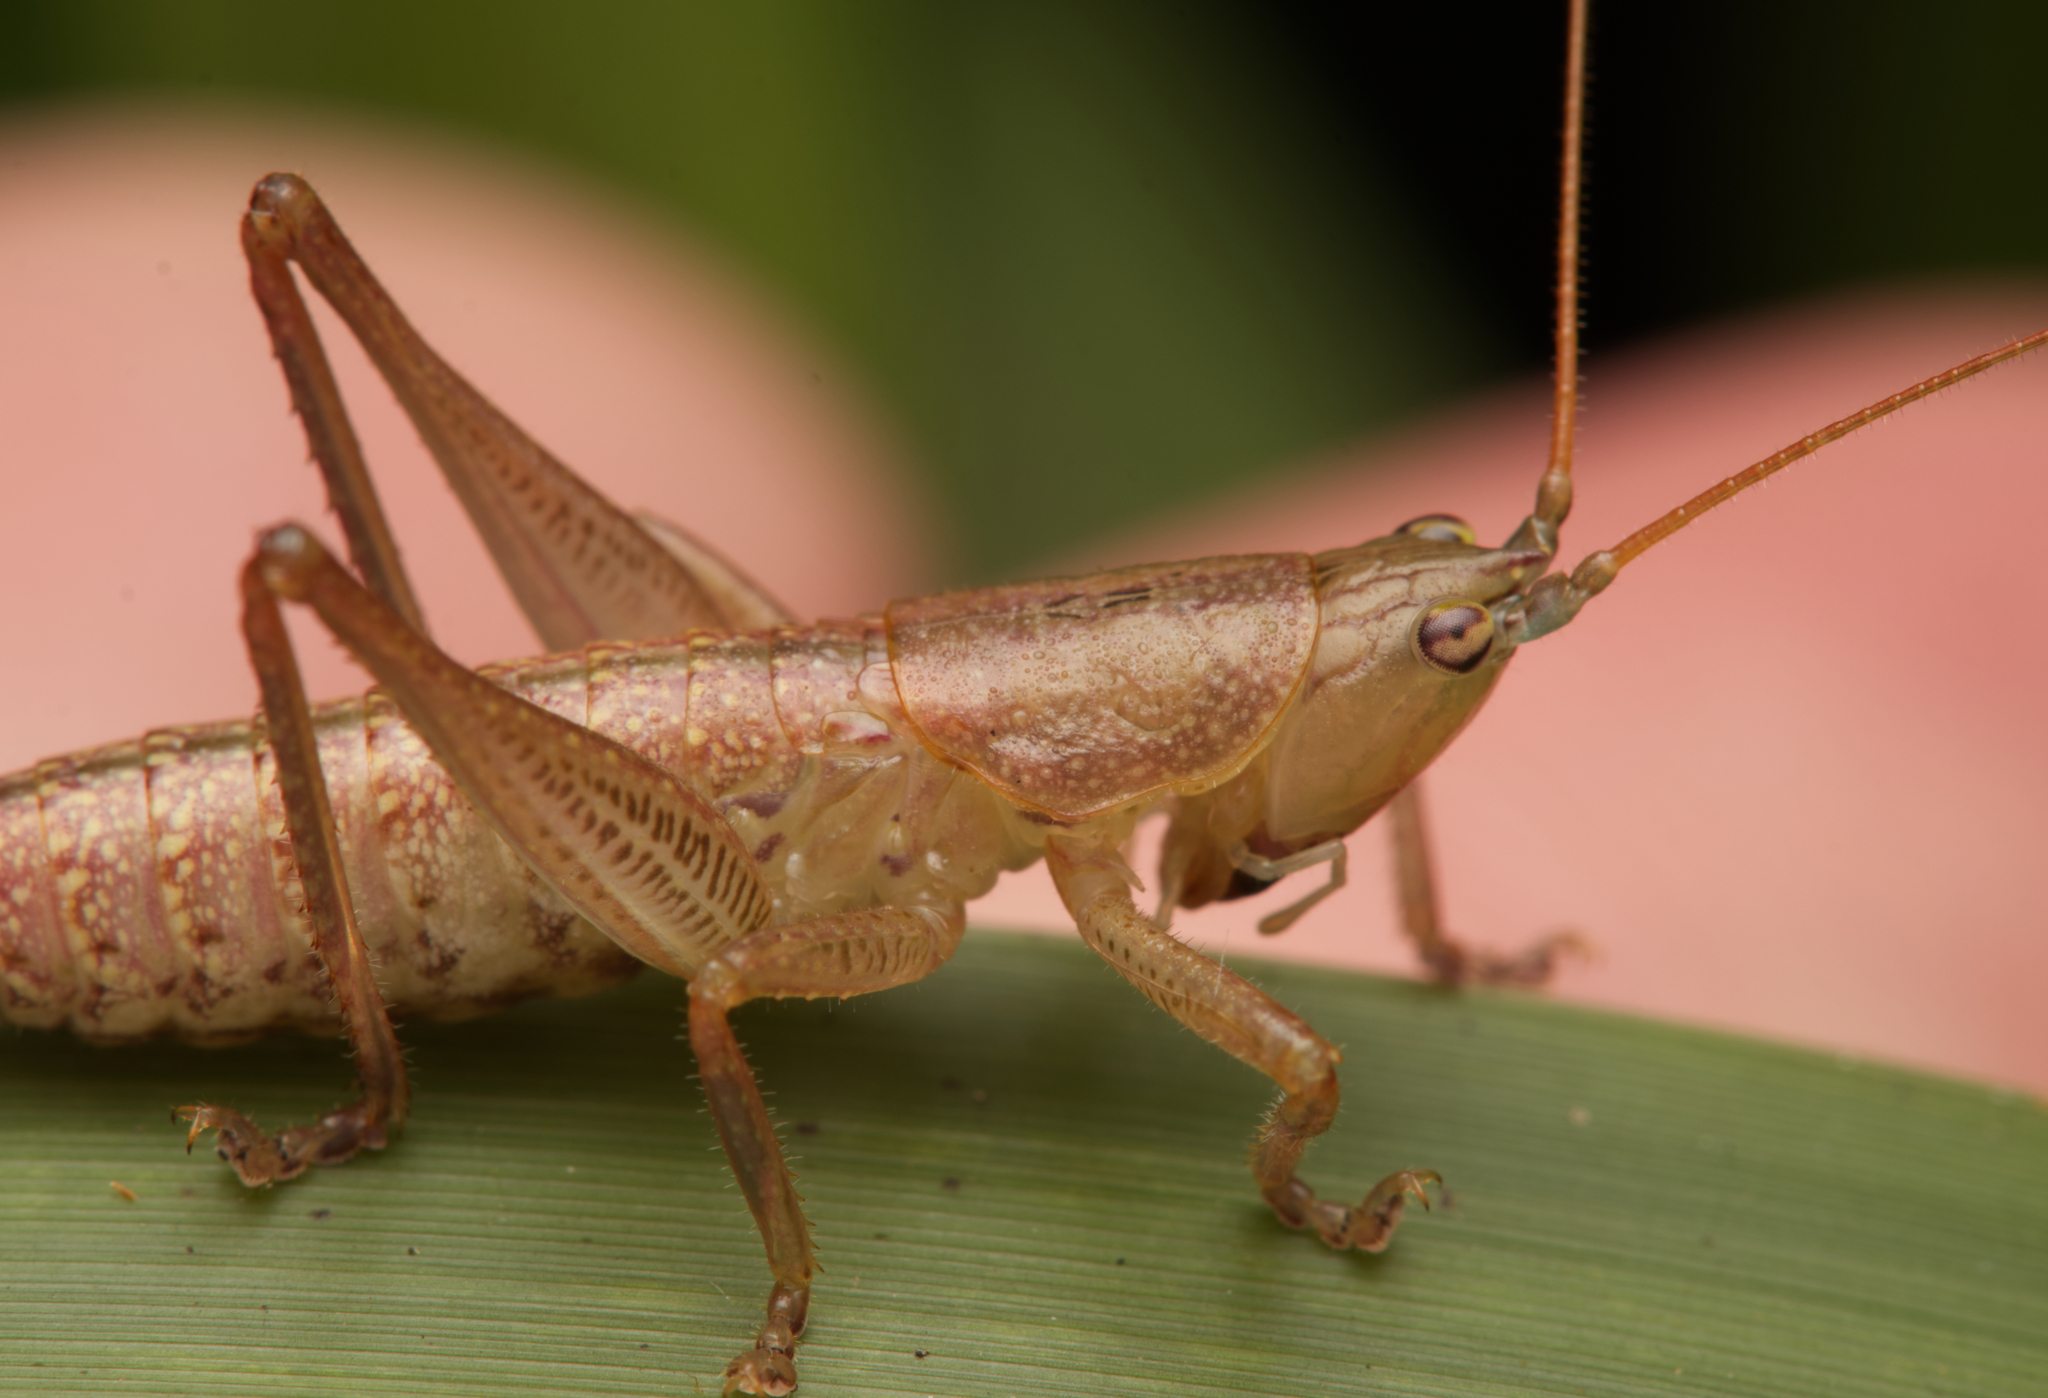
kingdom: Animalia
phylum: Arthropoda
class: Insecta
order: Orthoptera
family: Tettigoniidae
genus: Cooloolagraecia
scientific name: Cooloolagraecia wallum
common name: Wallum katydid
